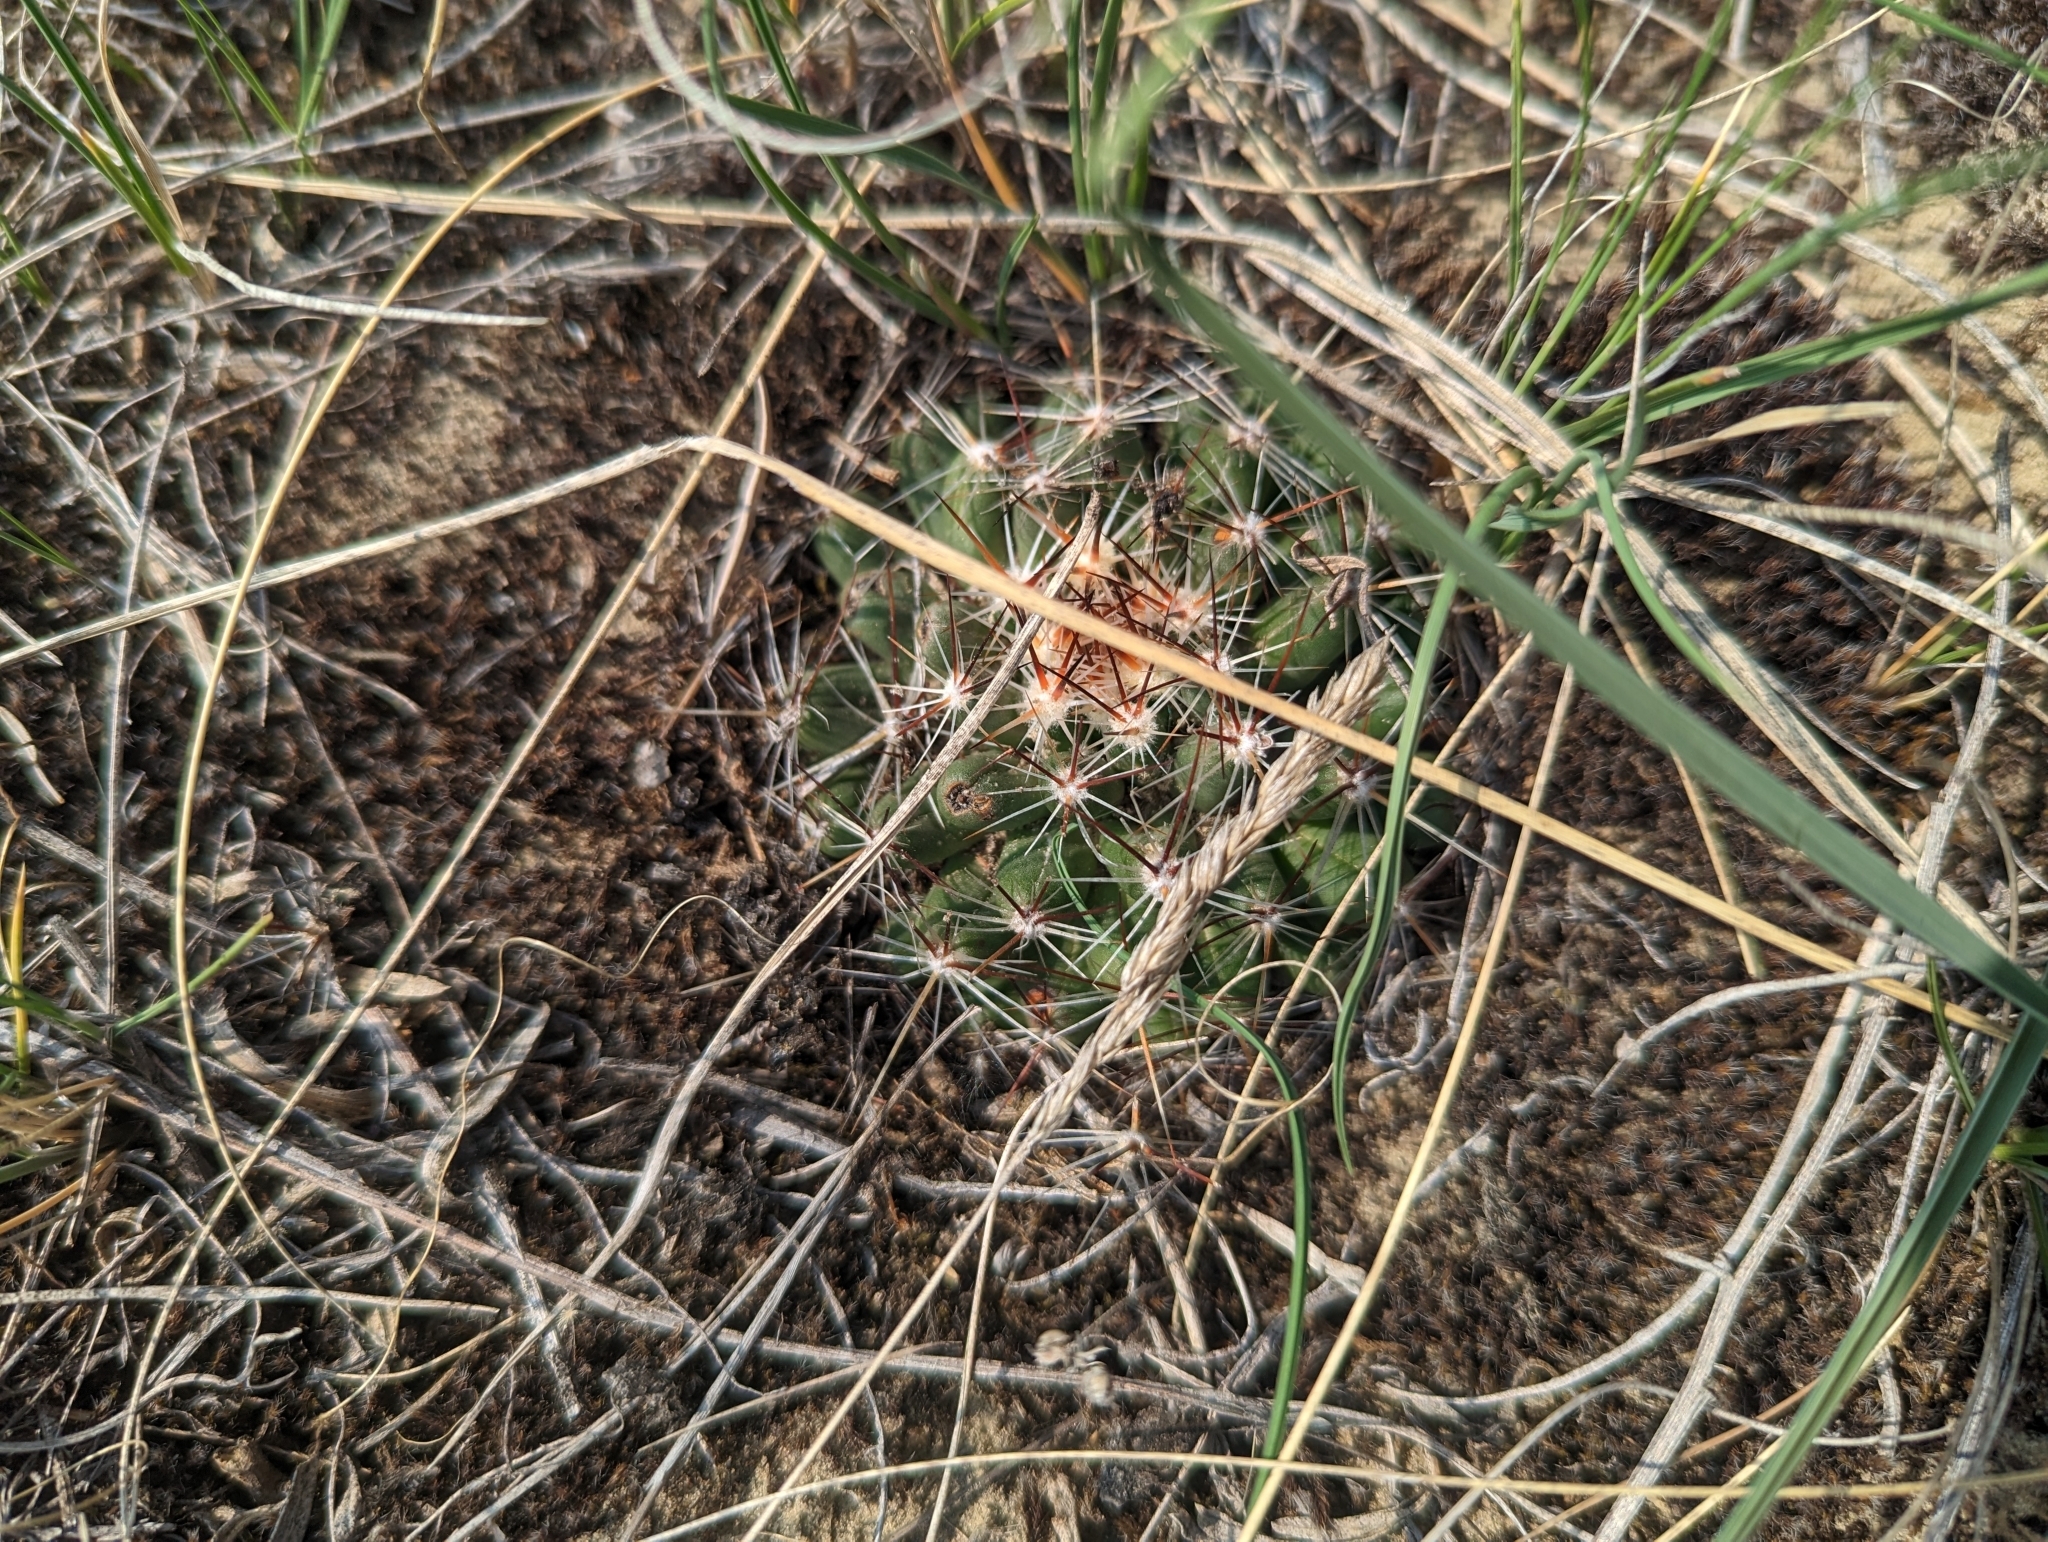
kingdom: Plantae
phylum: Tracheophyta
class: Magnoliopsida
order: Caryophyllales
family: Cactaceae
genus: Pelecyphora
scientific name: Pelecyphora vivipara
